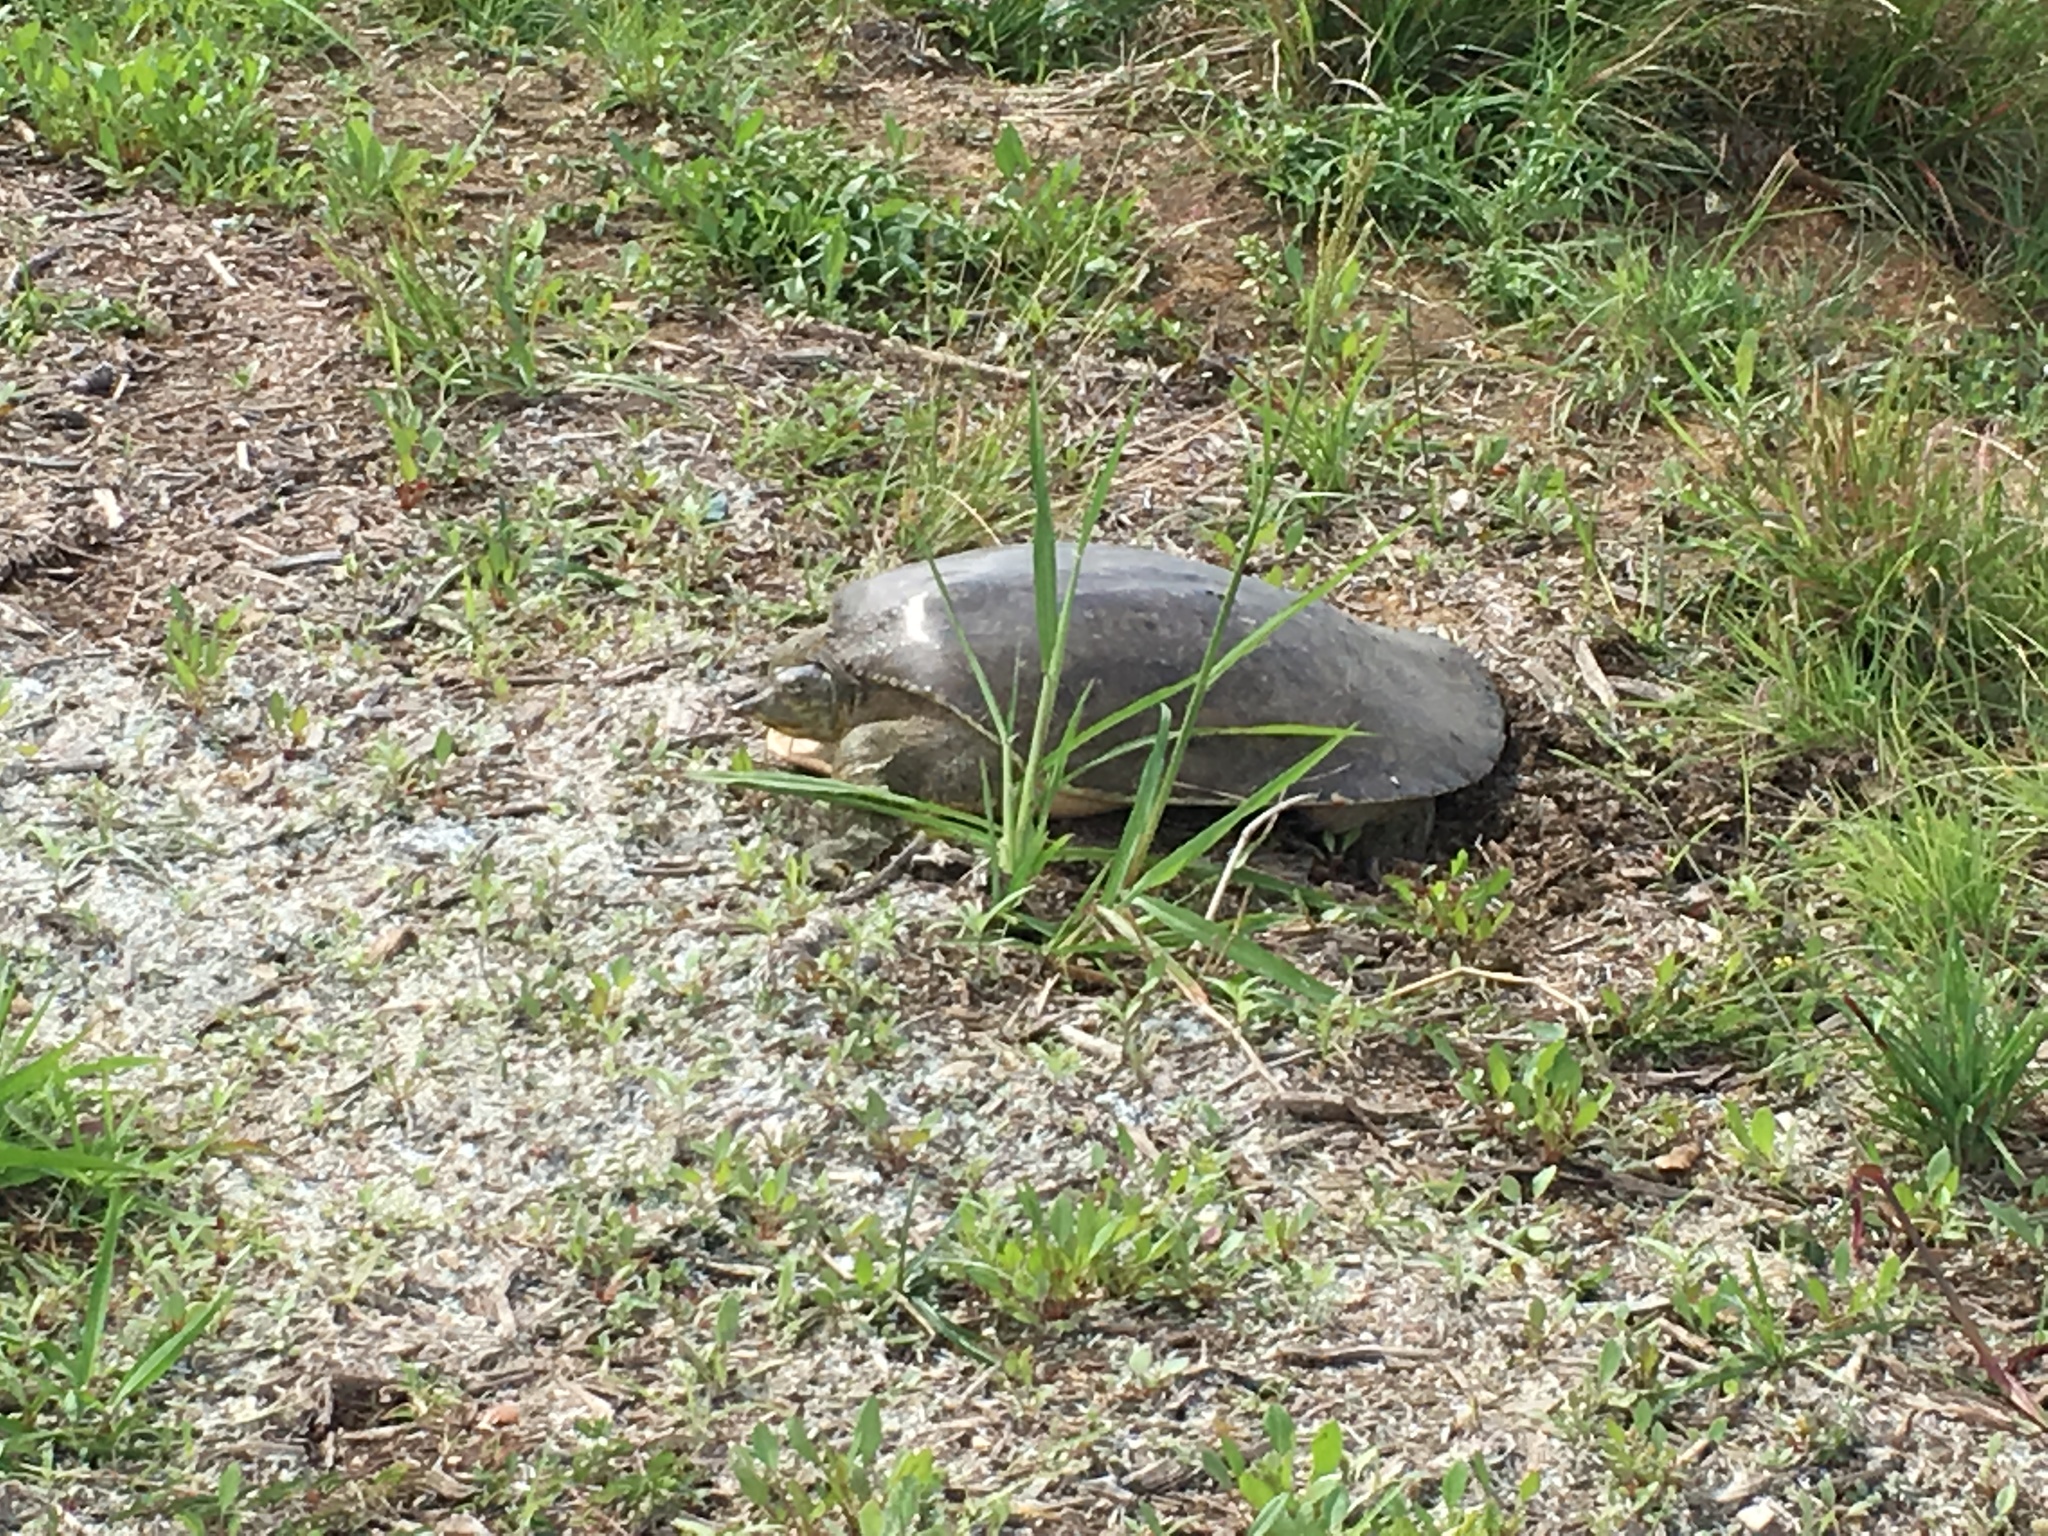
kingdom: Animalia
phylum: Chordata
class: Testudines
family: Trionychidae
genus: Apalone
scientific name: Apalone spinifera
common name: Spiny softshell turtle
